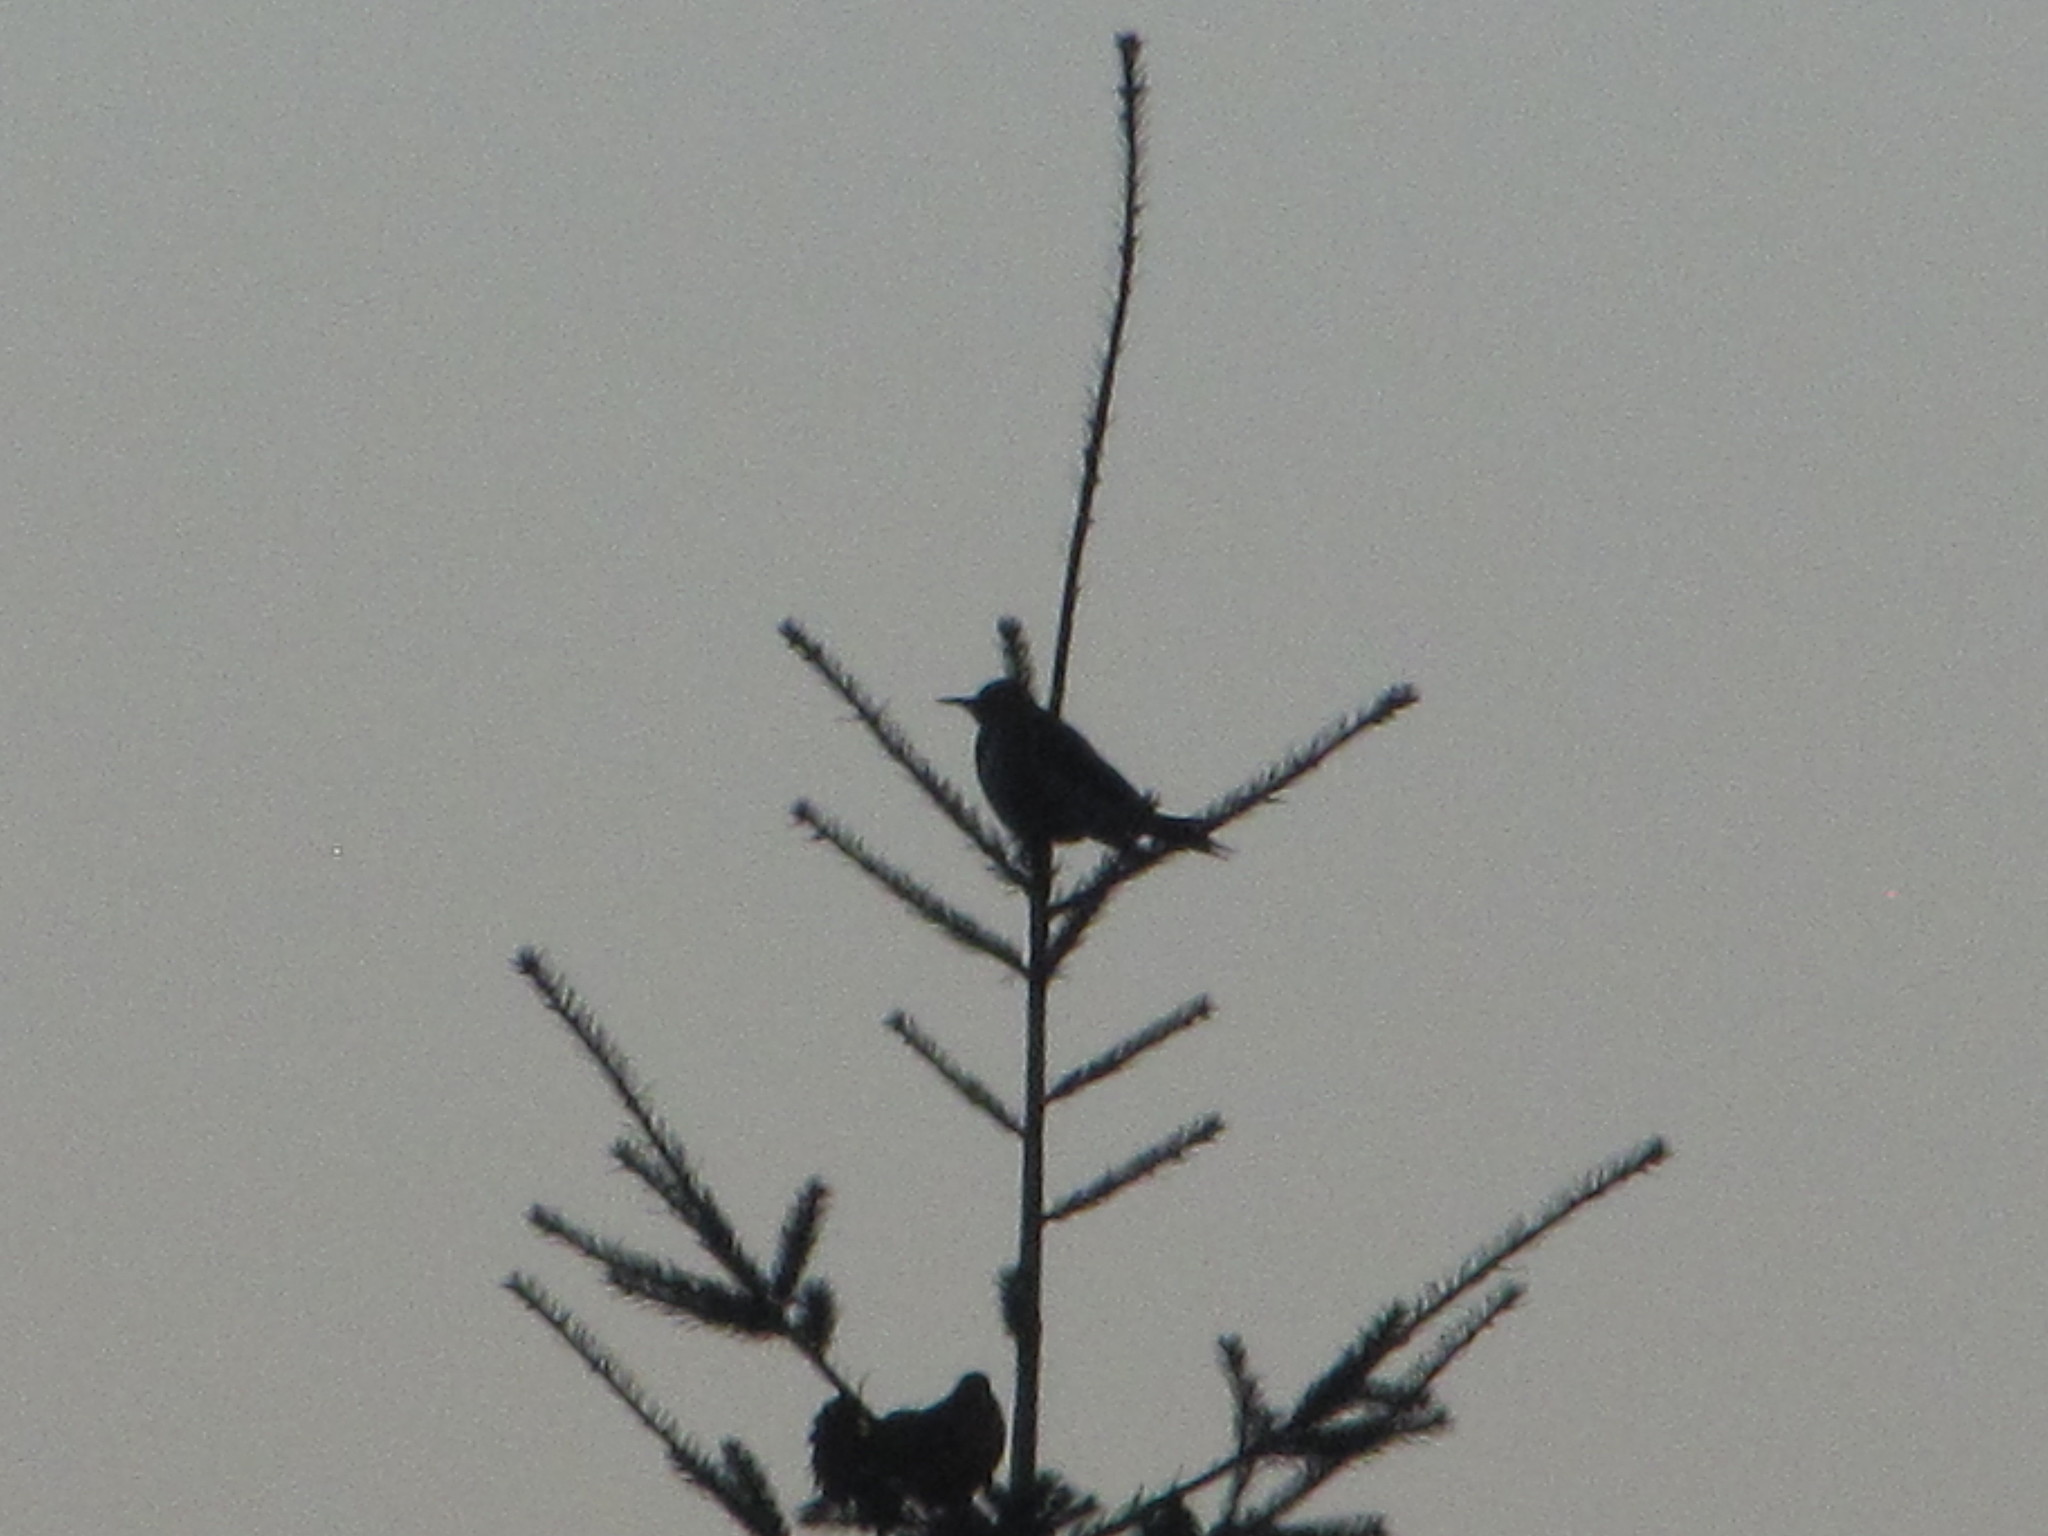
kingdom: Animalia
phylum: Chordata
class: Aves
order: Piciformes
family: Picidae
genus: Colaptes
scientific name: Colaptes auratus
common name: Northern flicker
